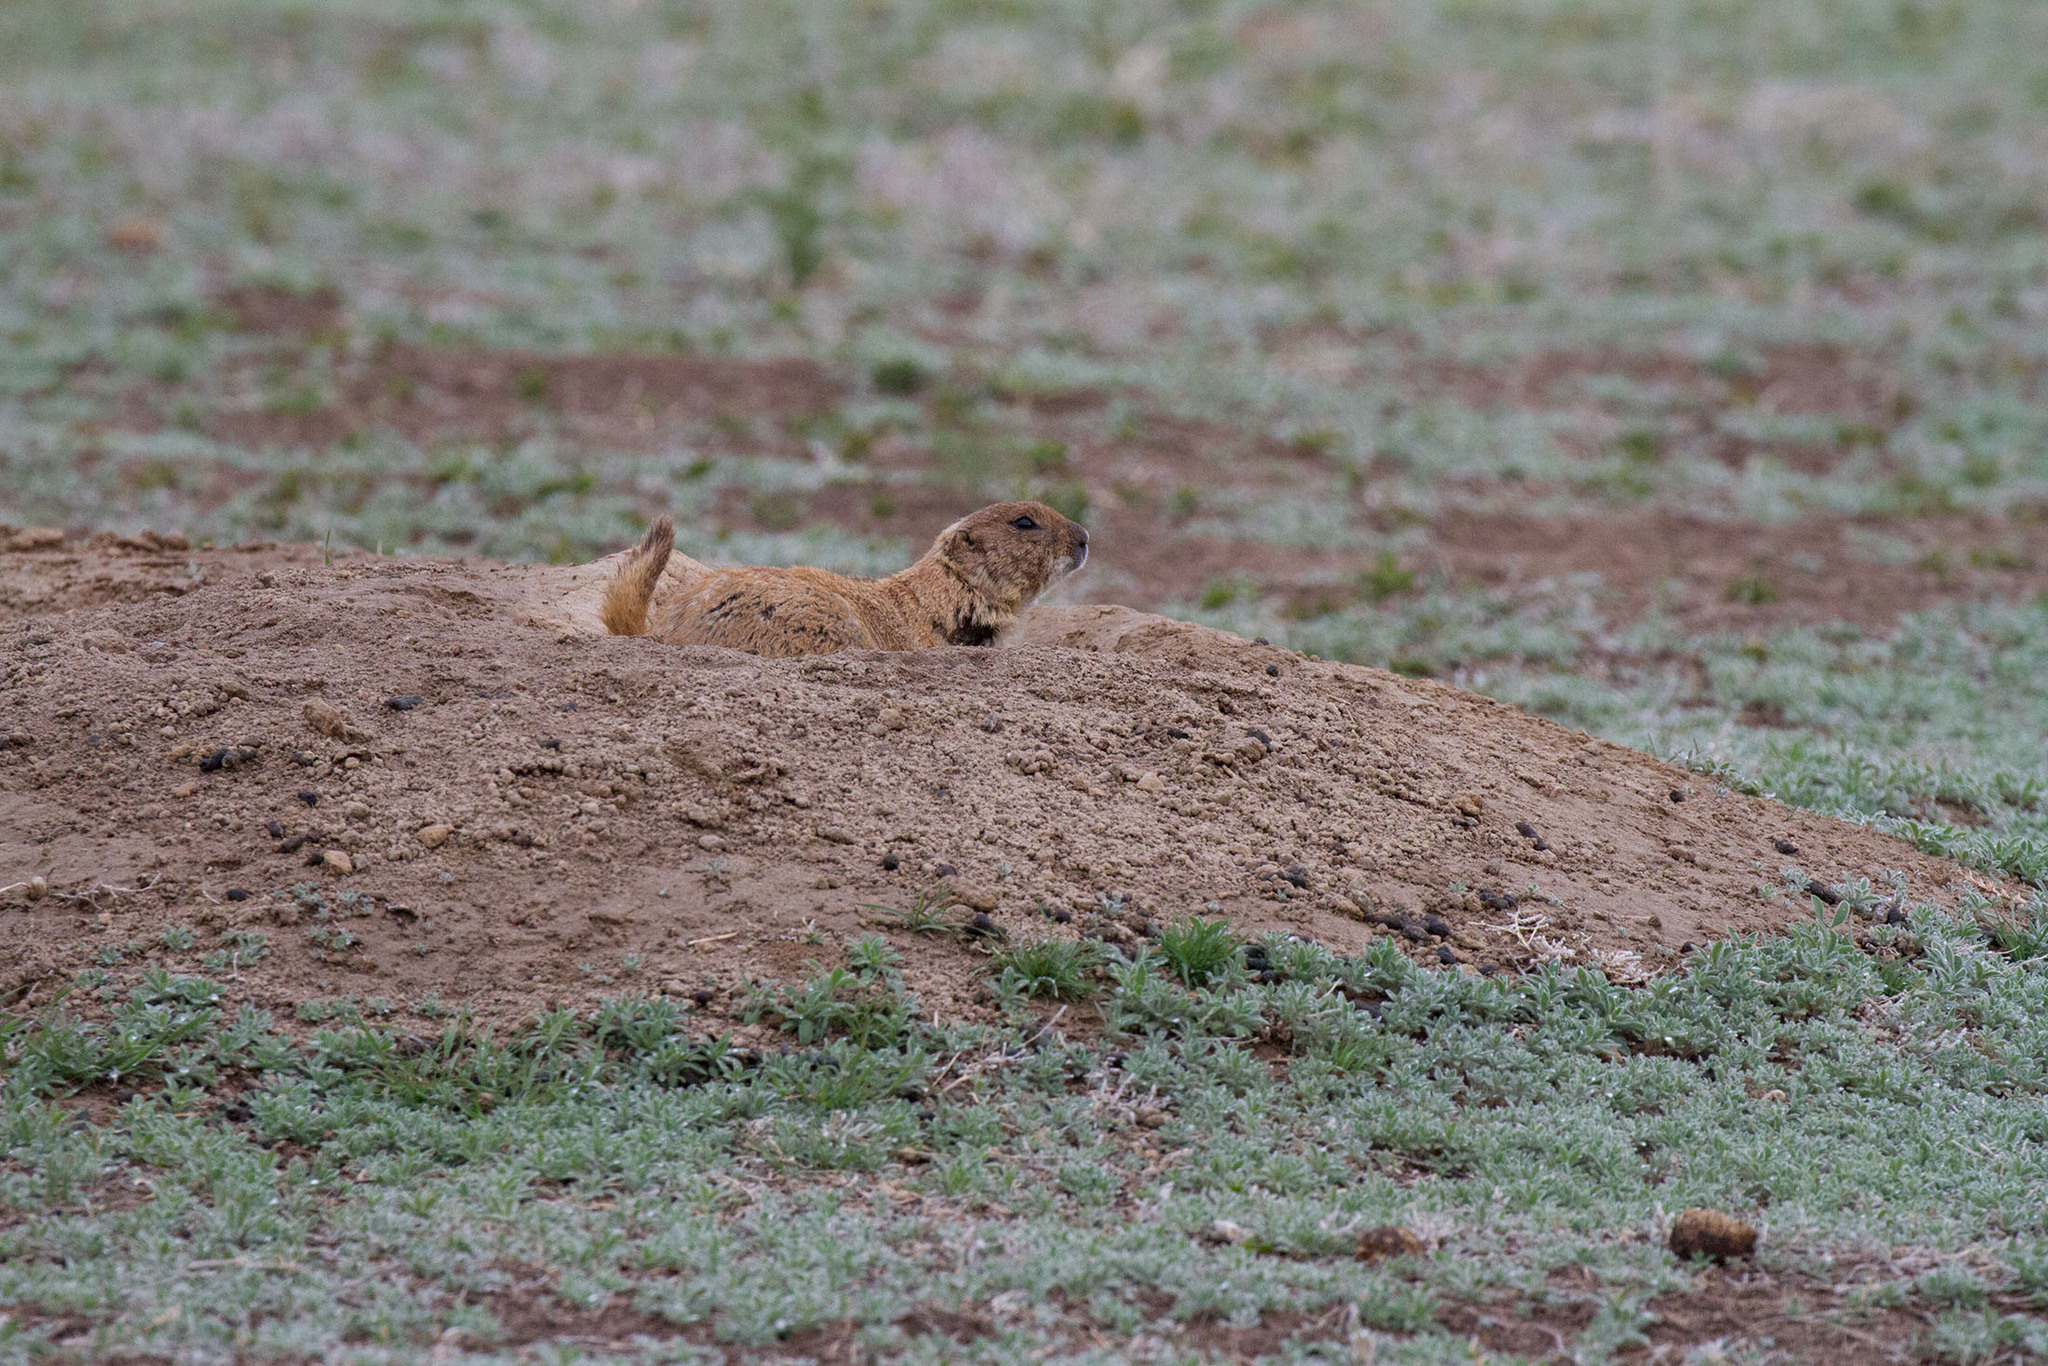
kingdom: Animalia
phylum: Chordata
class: Mammalia
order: Rodentia
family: Sciuridae
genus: Cynomys
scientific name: Cynomys ludovicianus
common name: Black-tailed prairie dog
